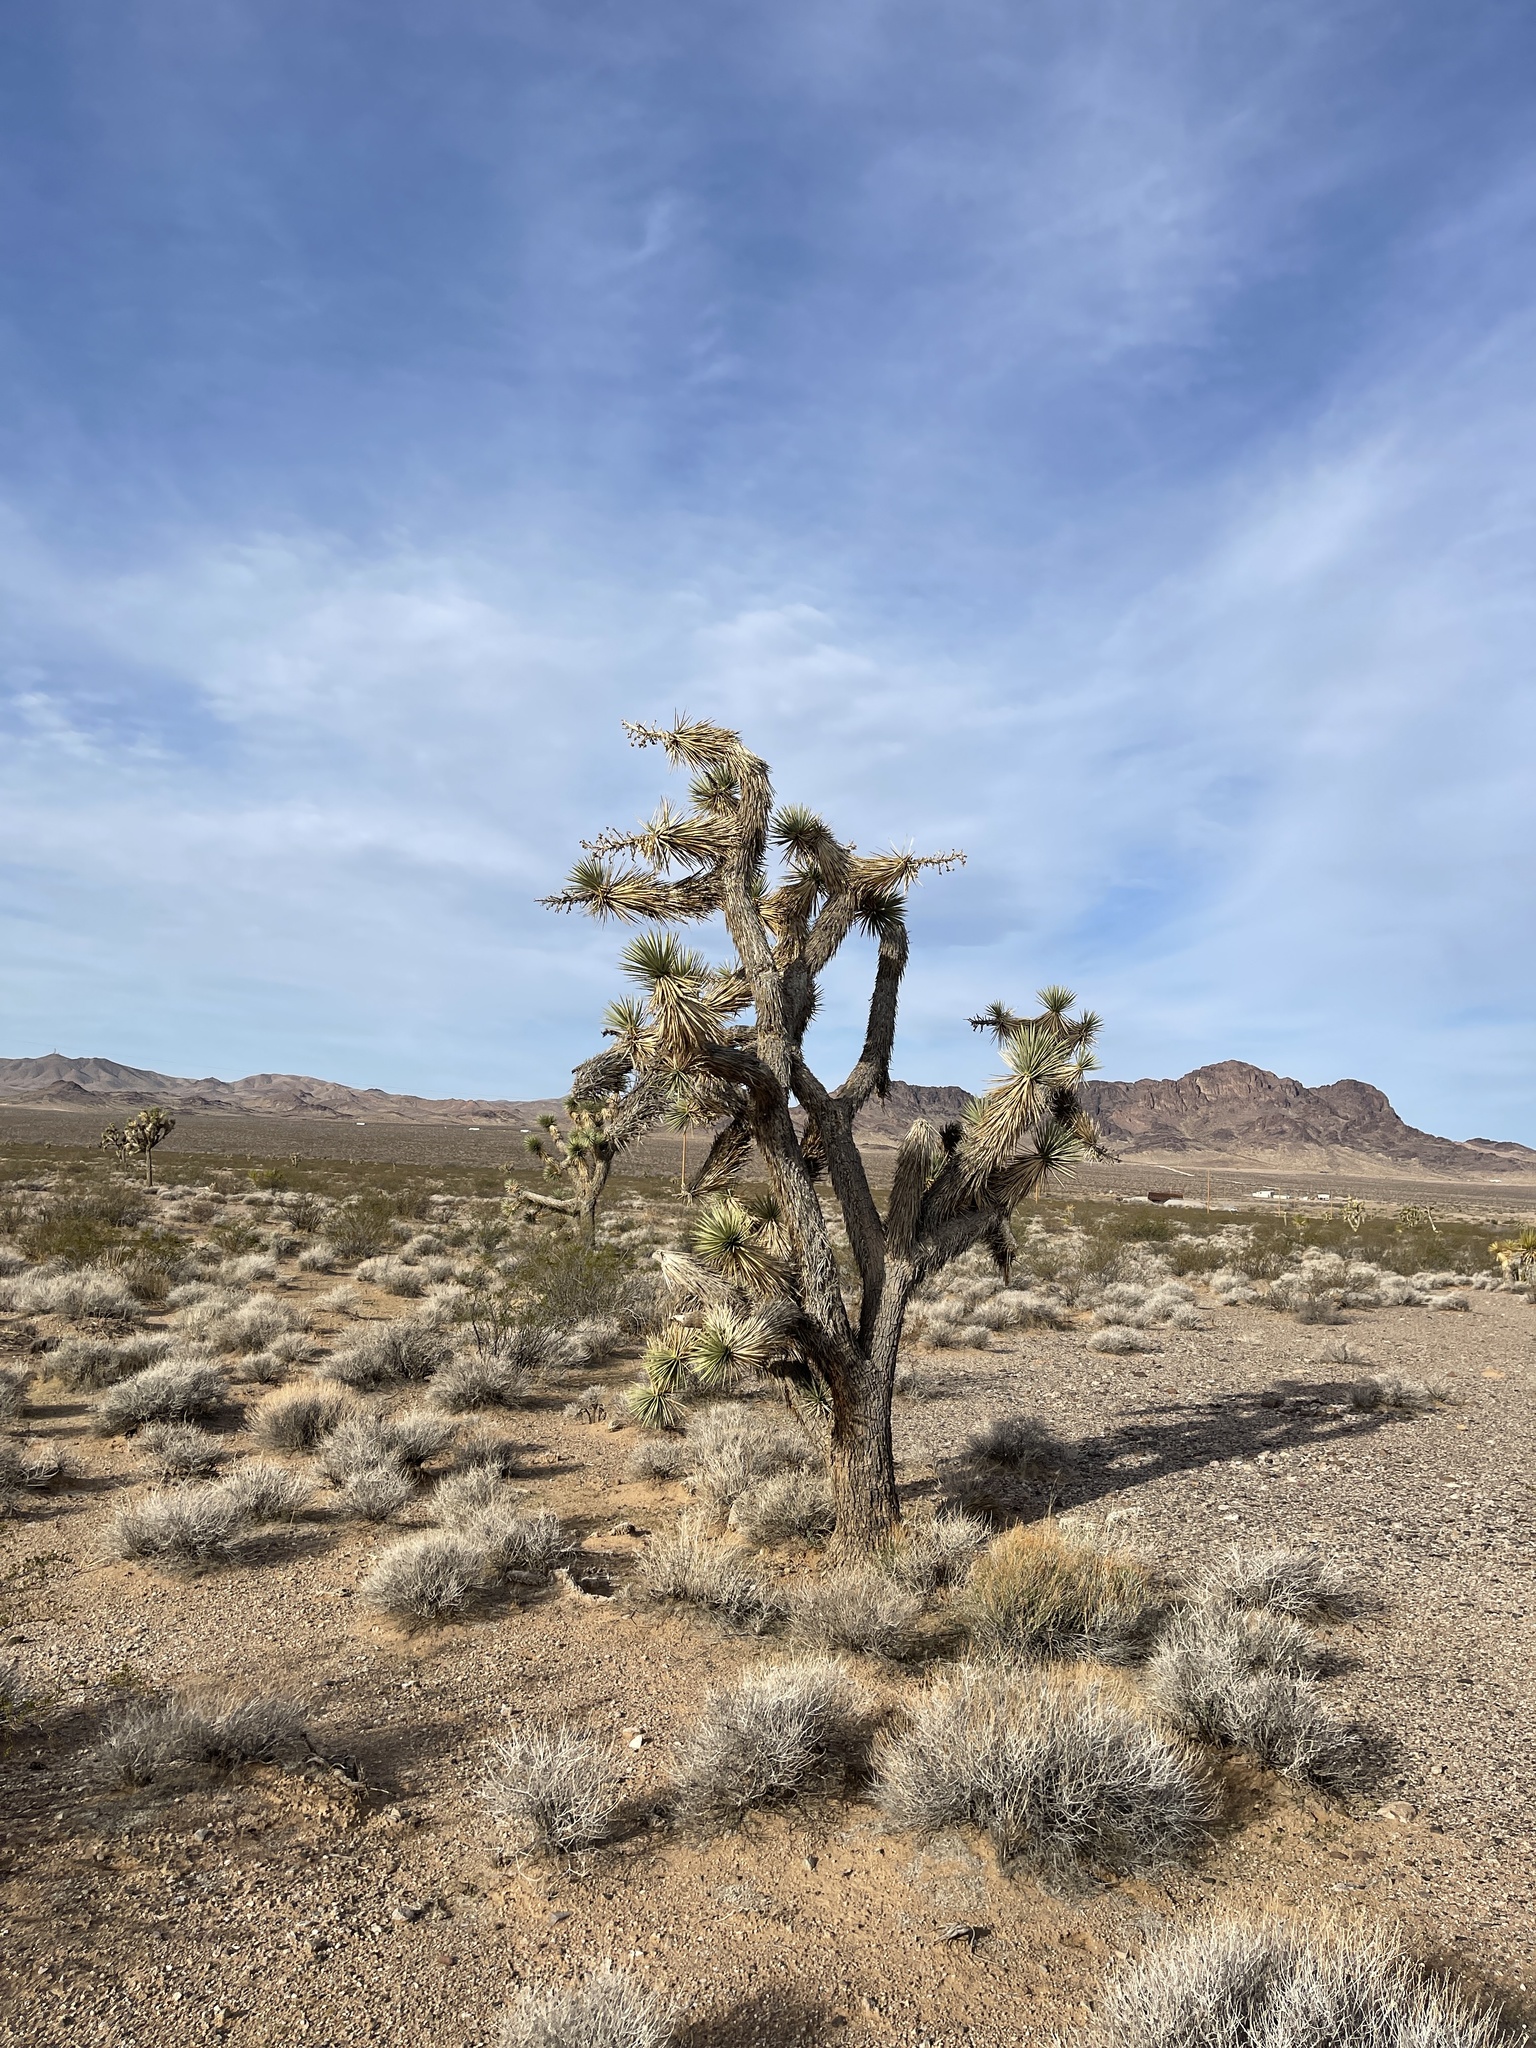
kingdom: Plantae
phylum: Tracheophyta
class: Liliopsida
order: Asparagales
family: Asparagaceae
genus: Yucca
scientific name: Yucca brevifolia
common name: Joshua tree
